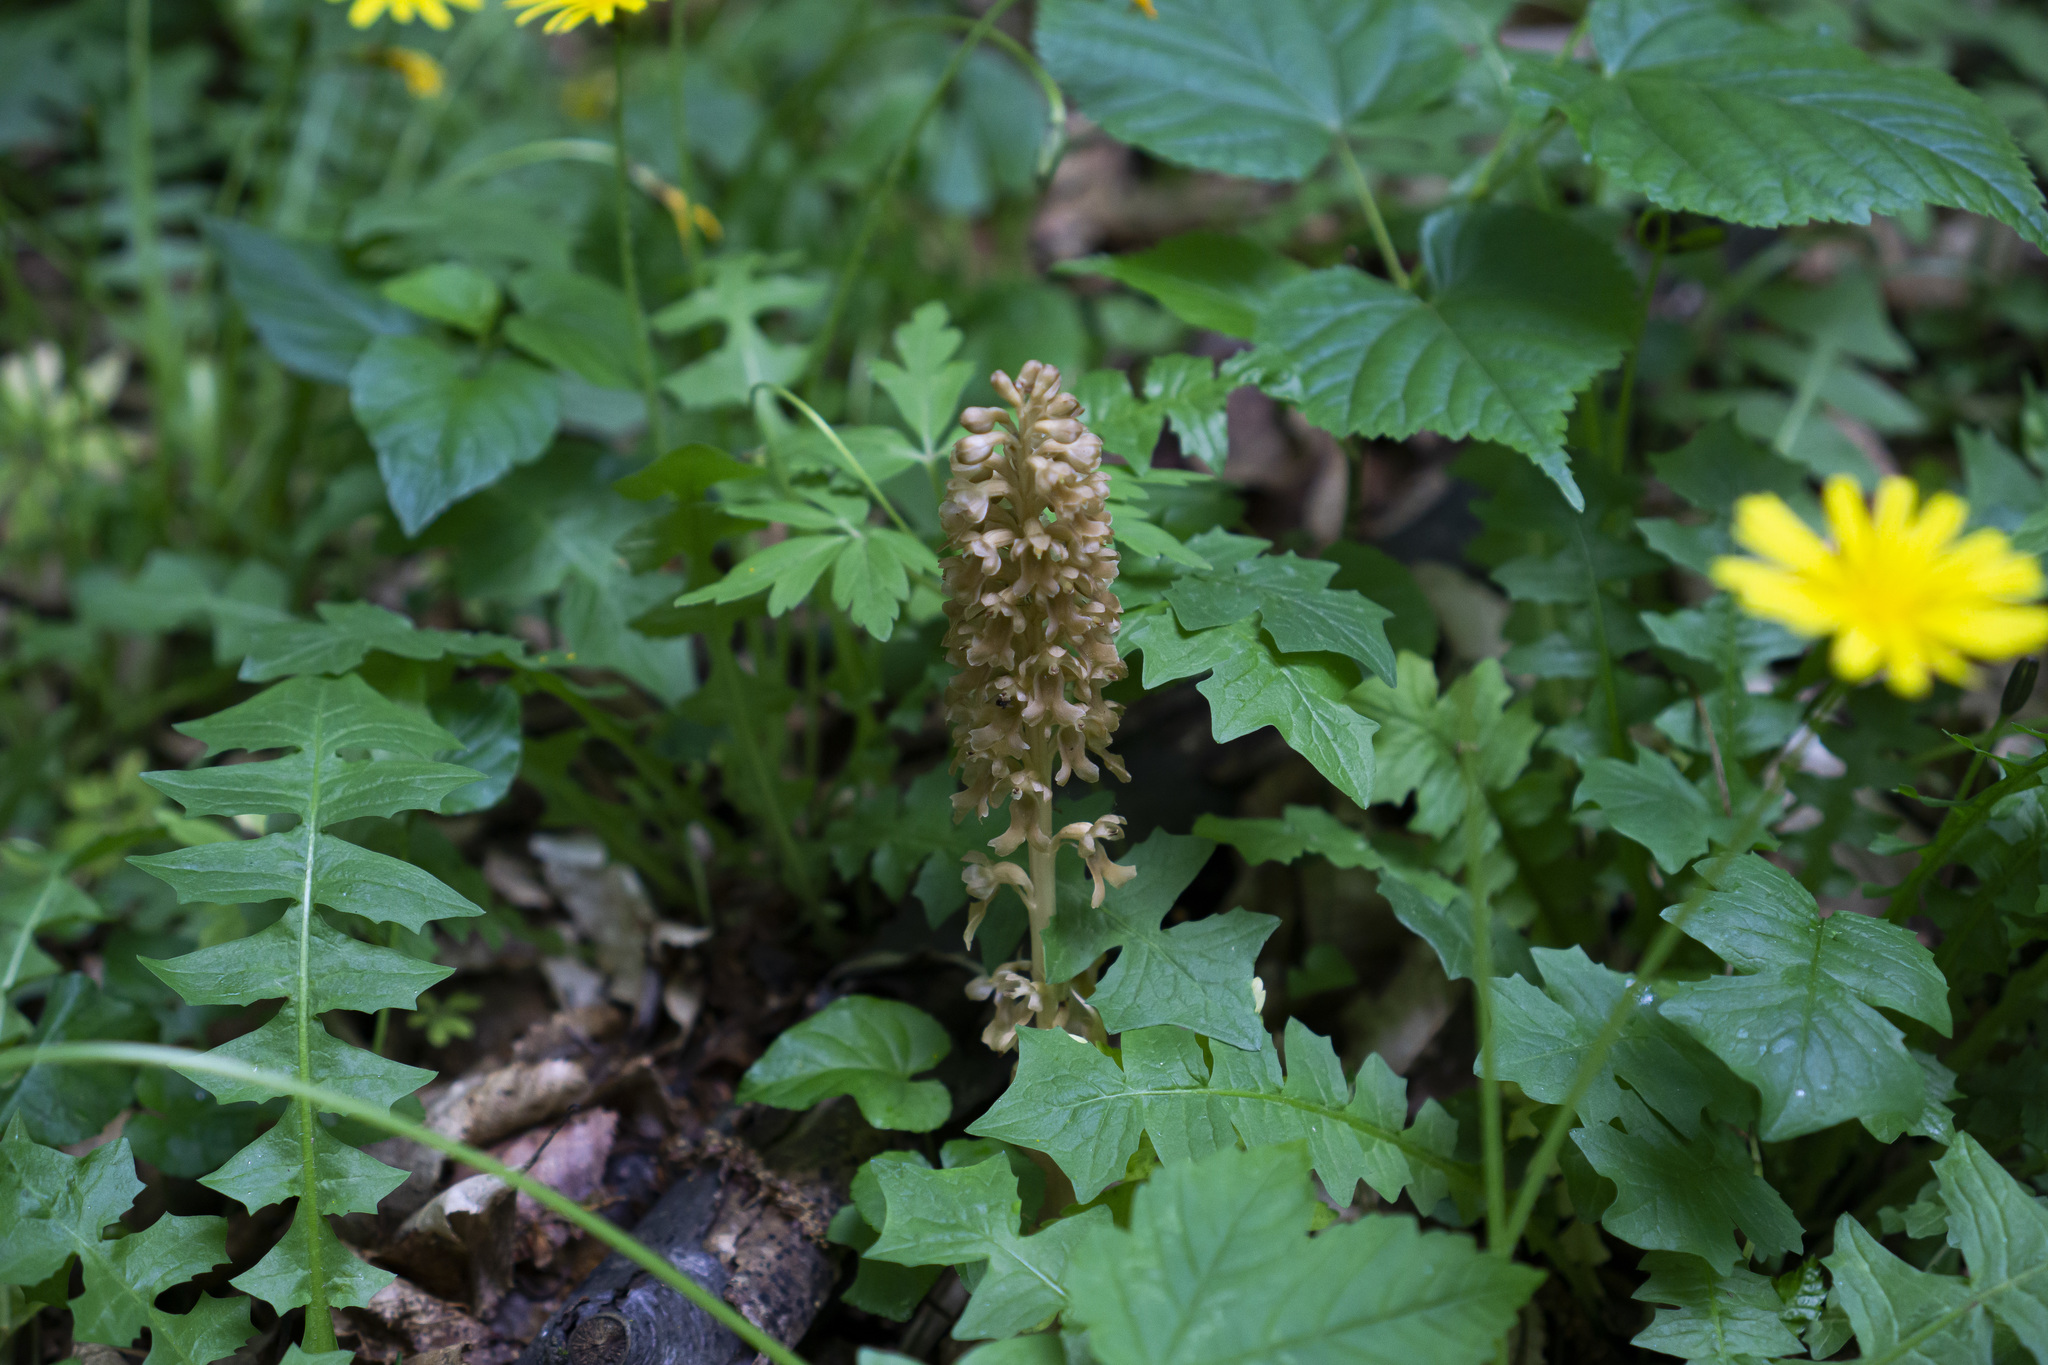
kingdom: Plantae
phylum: Tracheophyta
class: Liliopsida
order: Asparagales
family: Orchidaceae
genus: Neottia
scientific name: Neottia nidus-avis
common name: Bird's-nest orchid
